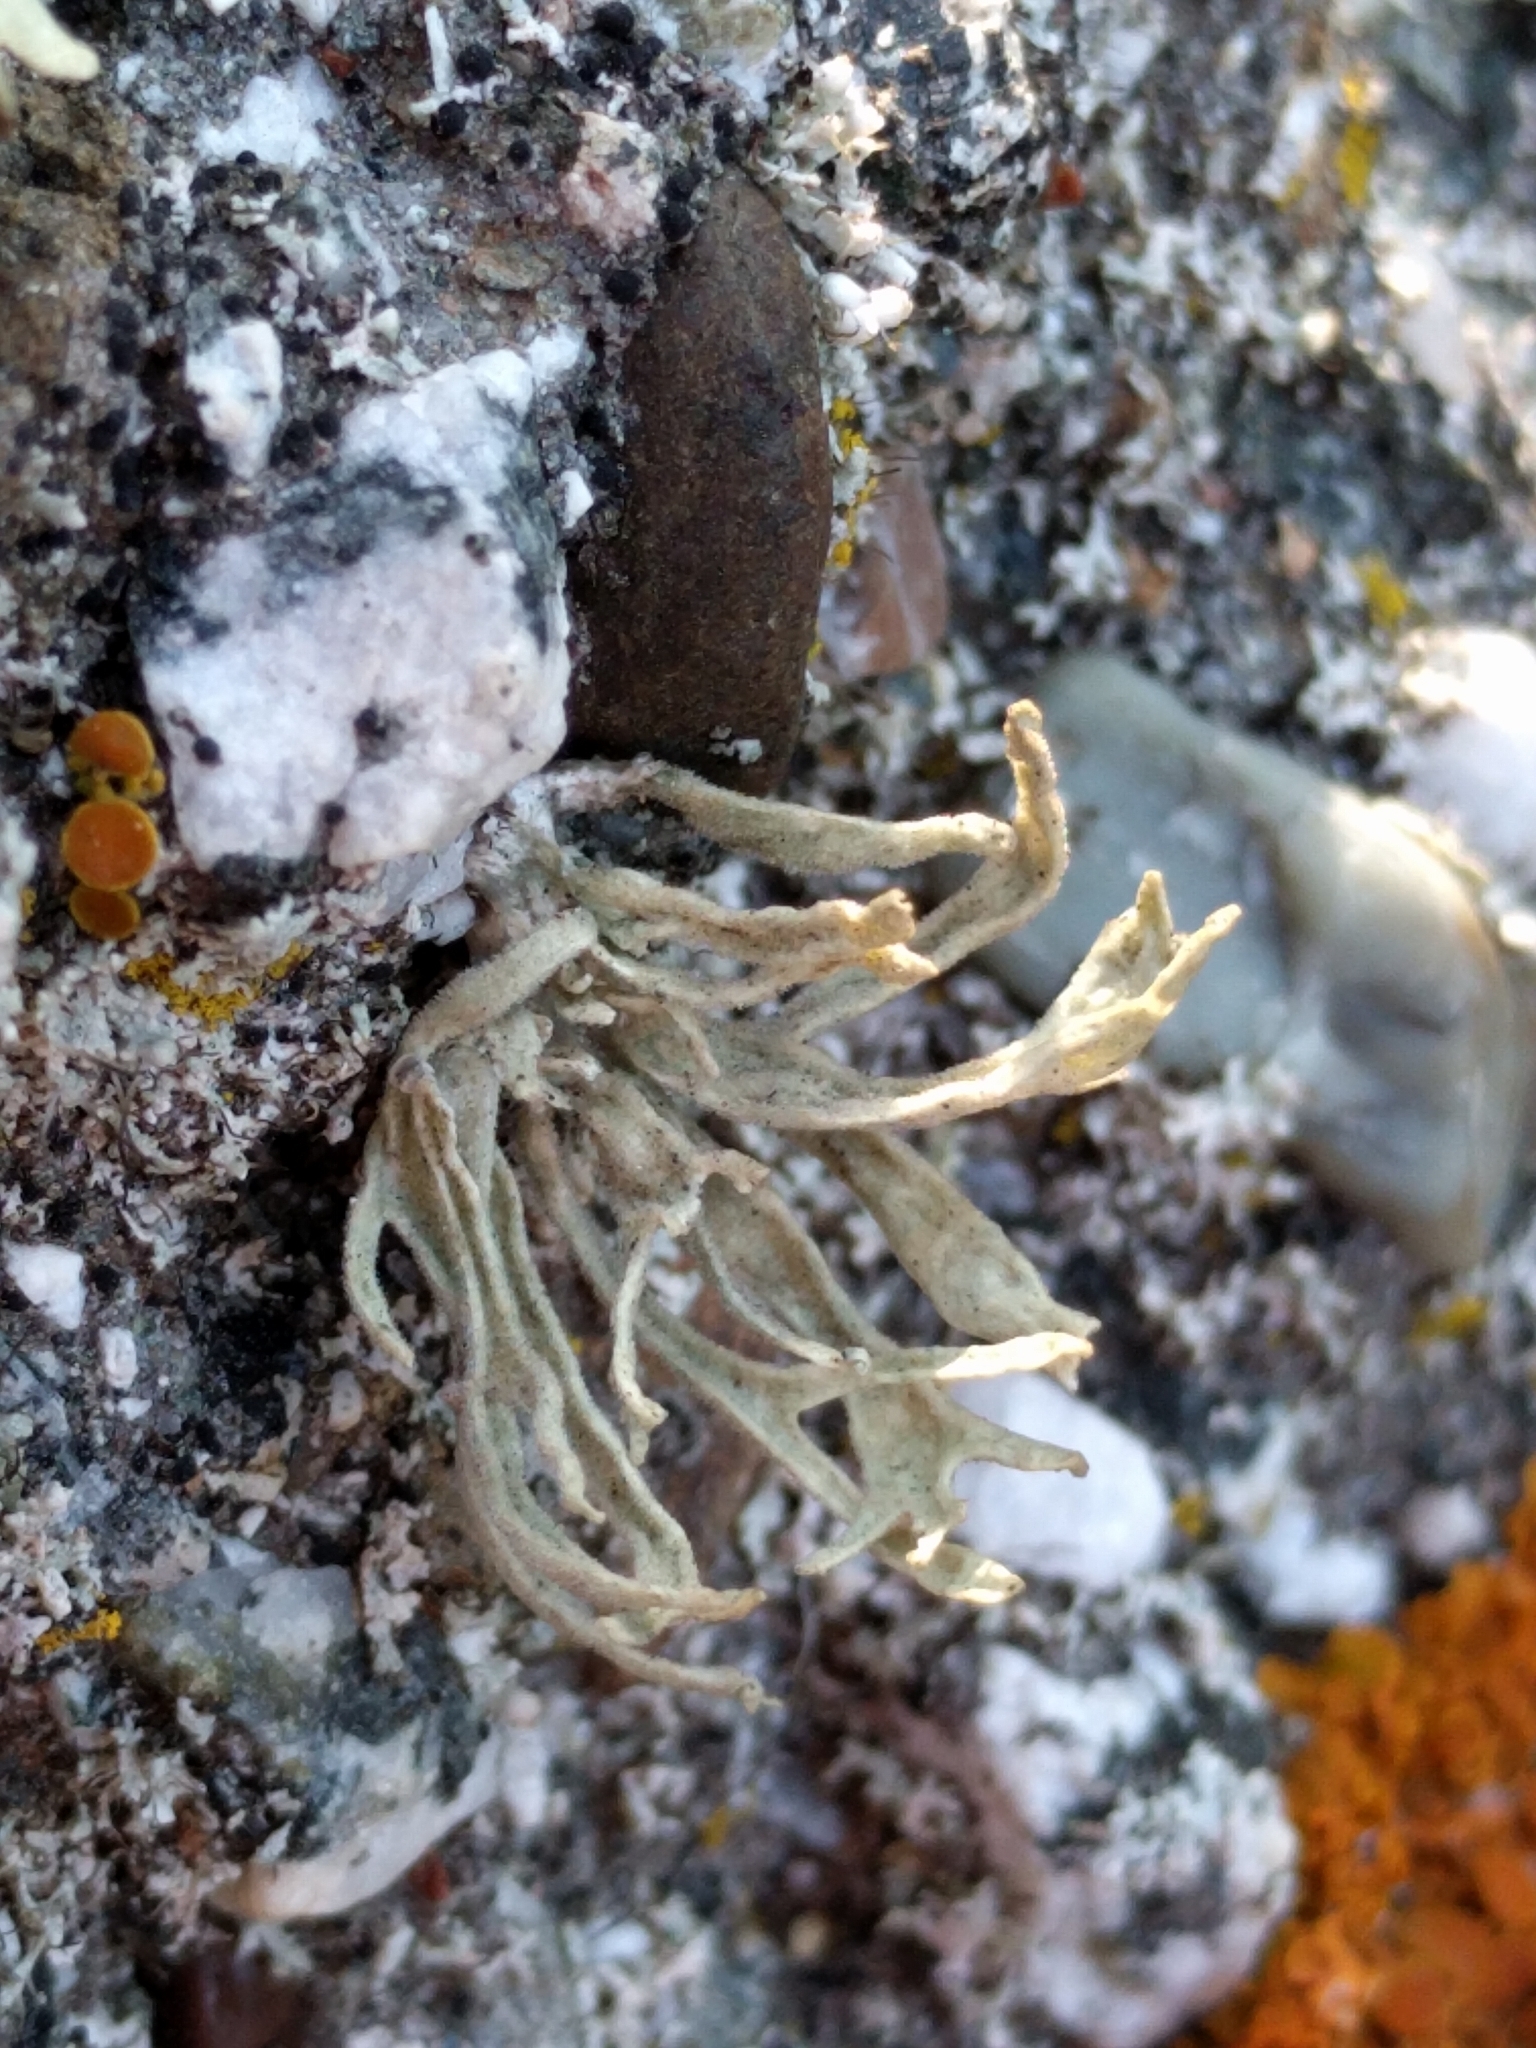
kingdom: Fungi
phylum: Ascomycota
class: Lecanoromycetes
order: Lecanorales
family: Ramalinaceae
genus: Ramalina
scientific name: Ramalina
